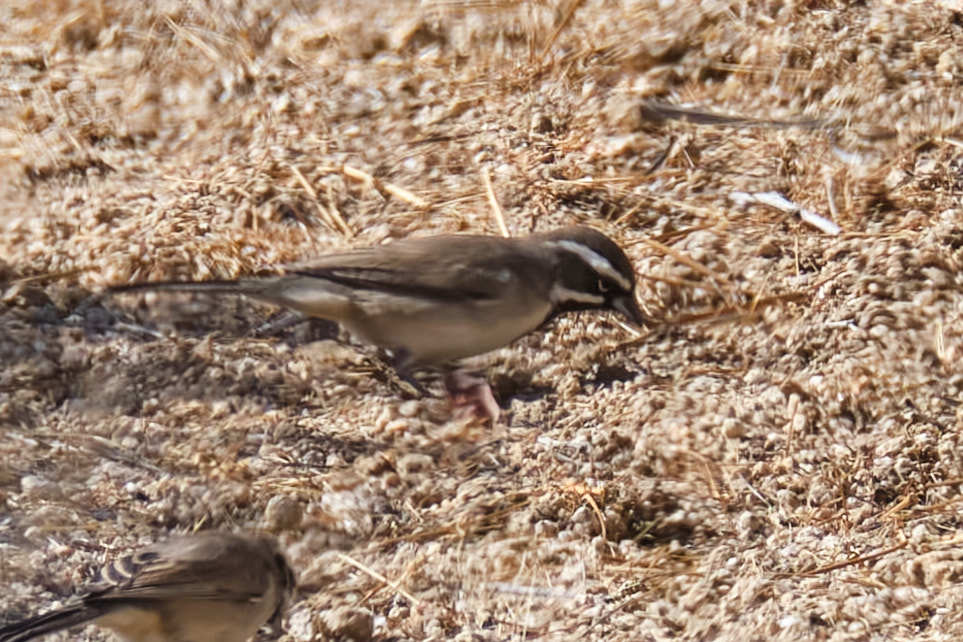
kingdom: Animalia
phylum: Chordata
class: Aves
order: Passeriformes
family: Passerellidae
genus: Amphispiza
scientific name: Amphispiza bilineata
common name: Black-throated sparrow
